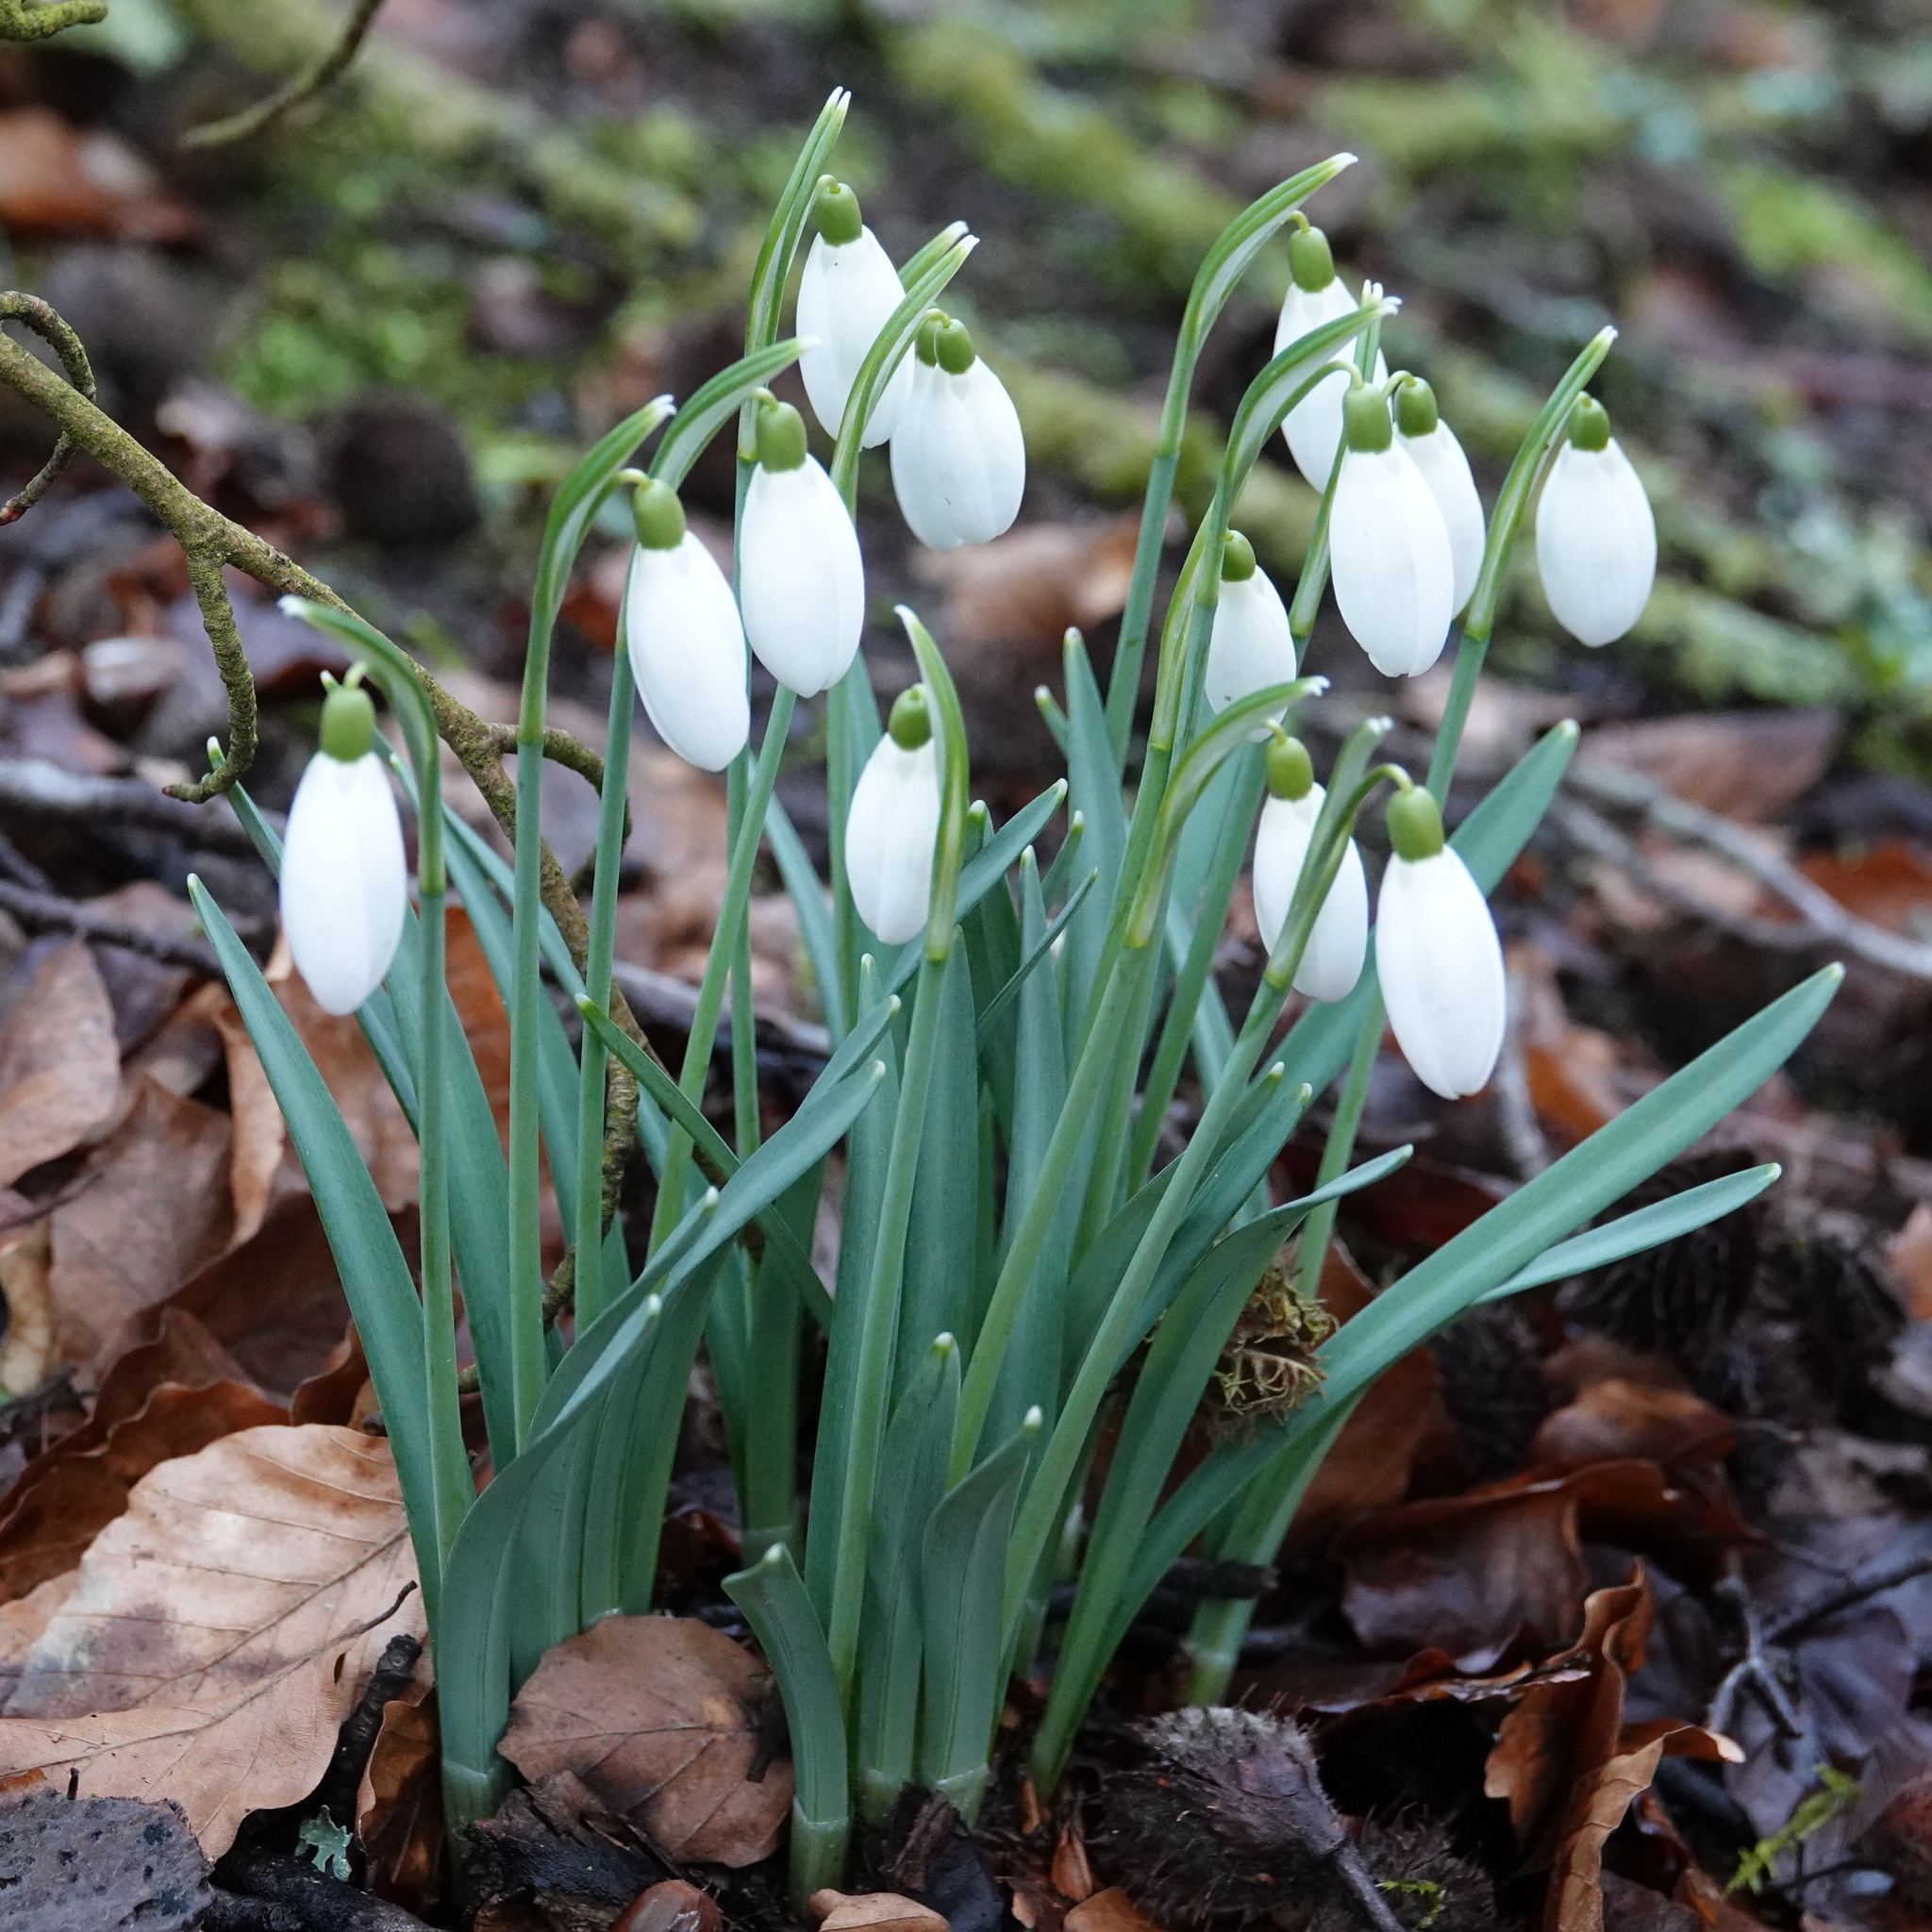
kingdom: Plantae
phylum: Tracheophyta
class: Liliopsida
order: Asparagales
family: Amaryllidaceae
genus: Galanthus
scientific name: Galanthus nivalis
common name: Snowdrop
